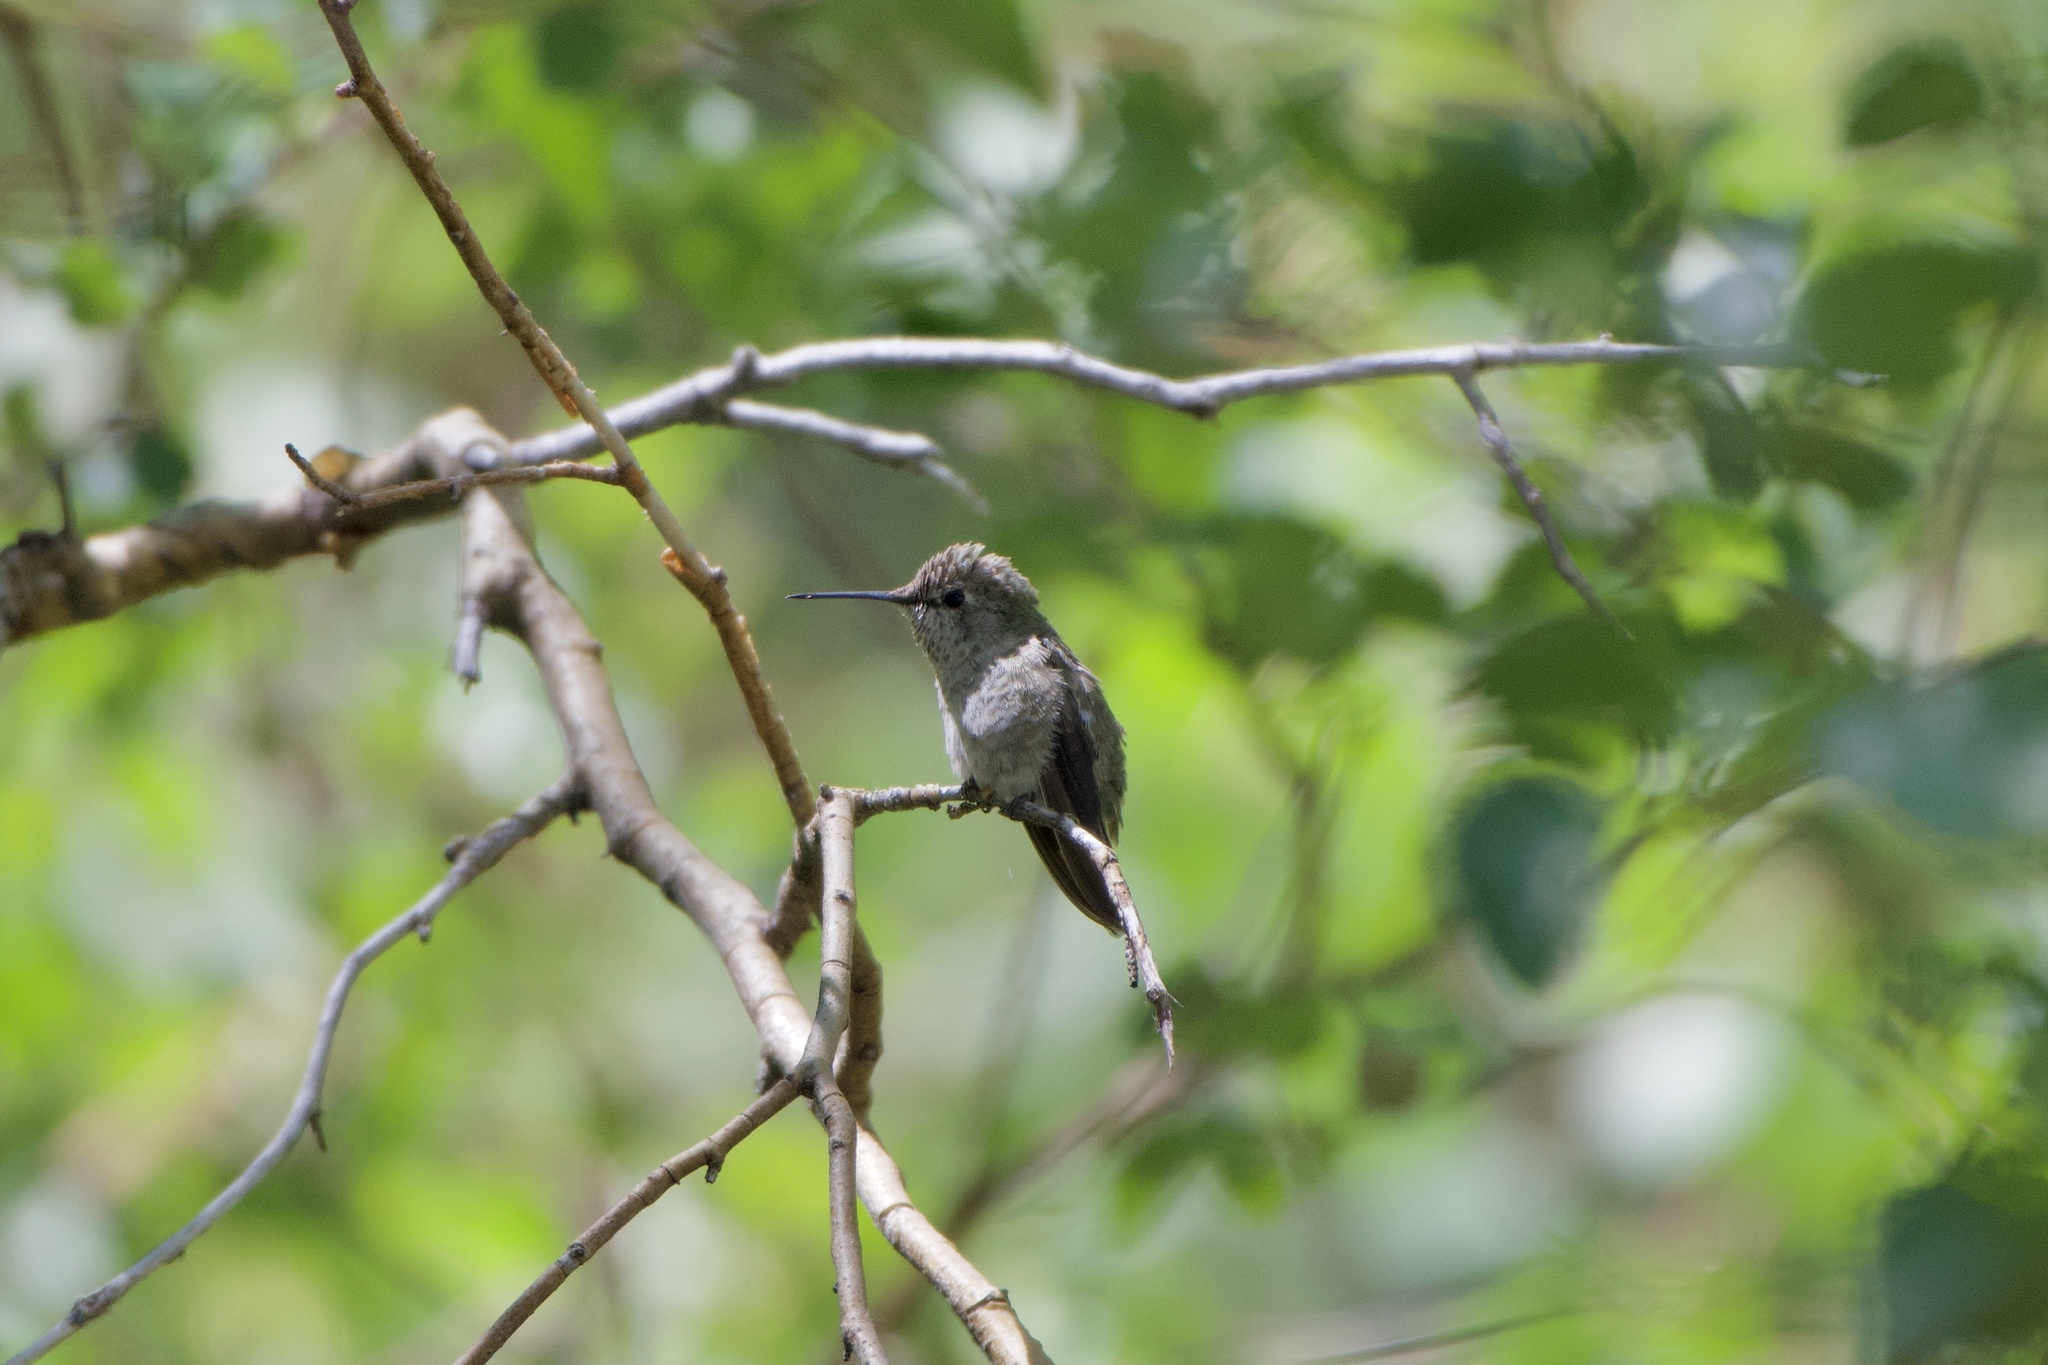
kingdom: Animalia
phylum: Chordata
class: Aves
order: Apodiformes
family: Trochilidae
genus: Calypte
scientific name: Calypte anna
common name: Anna's hummingbird
